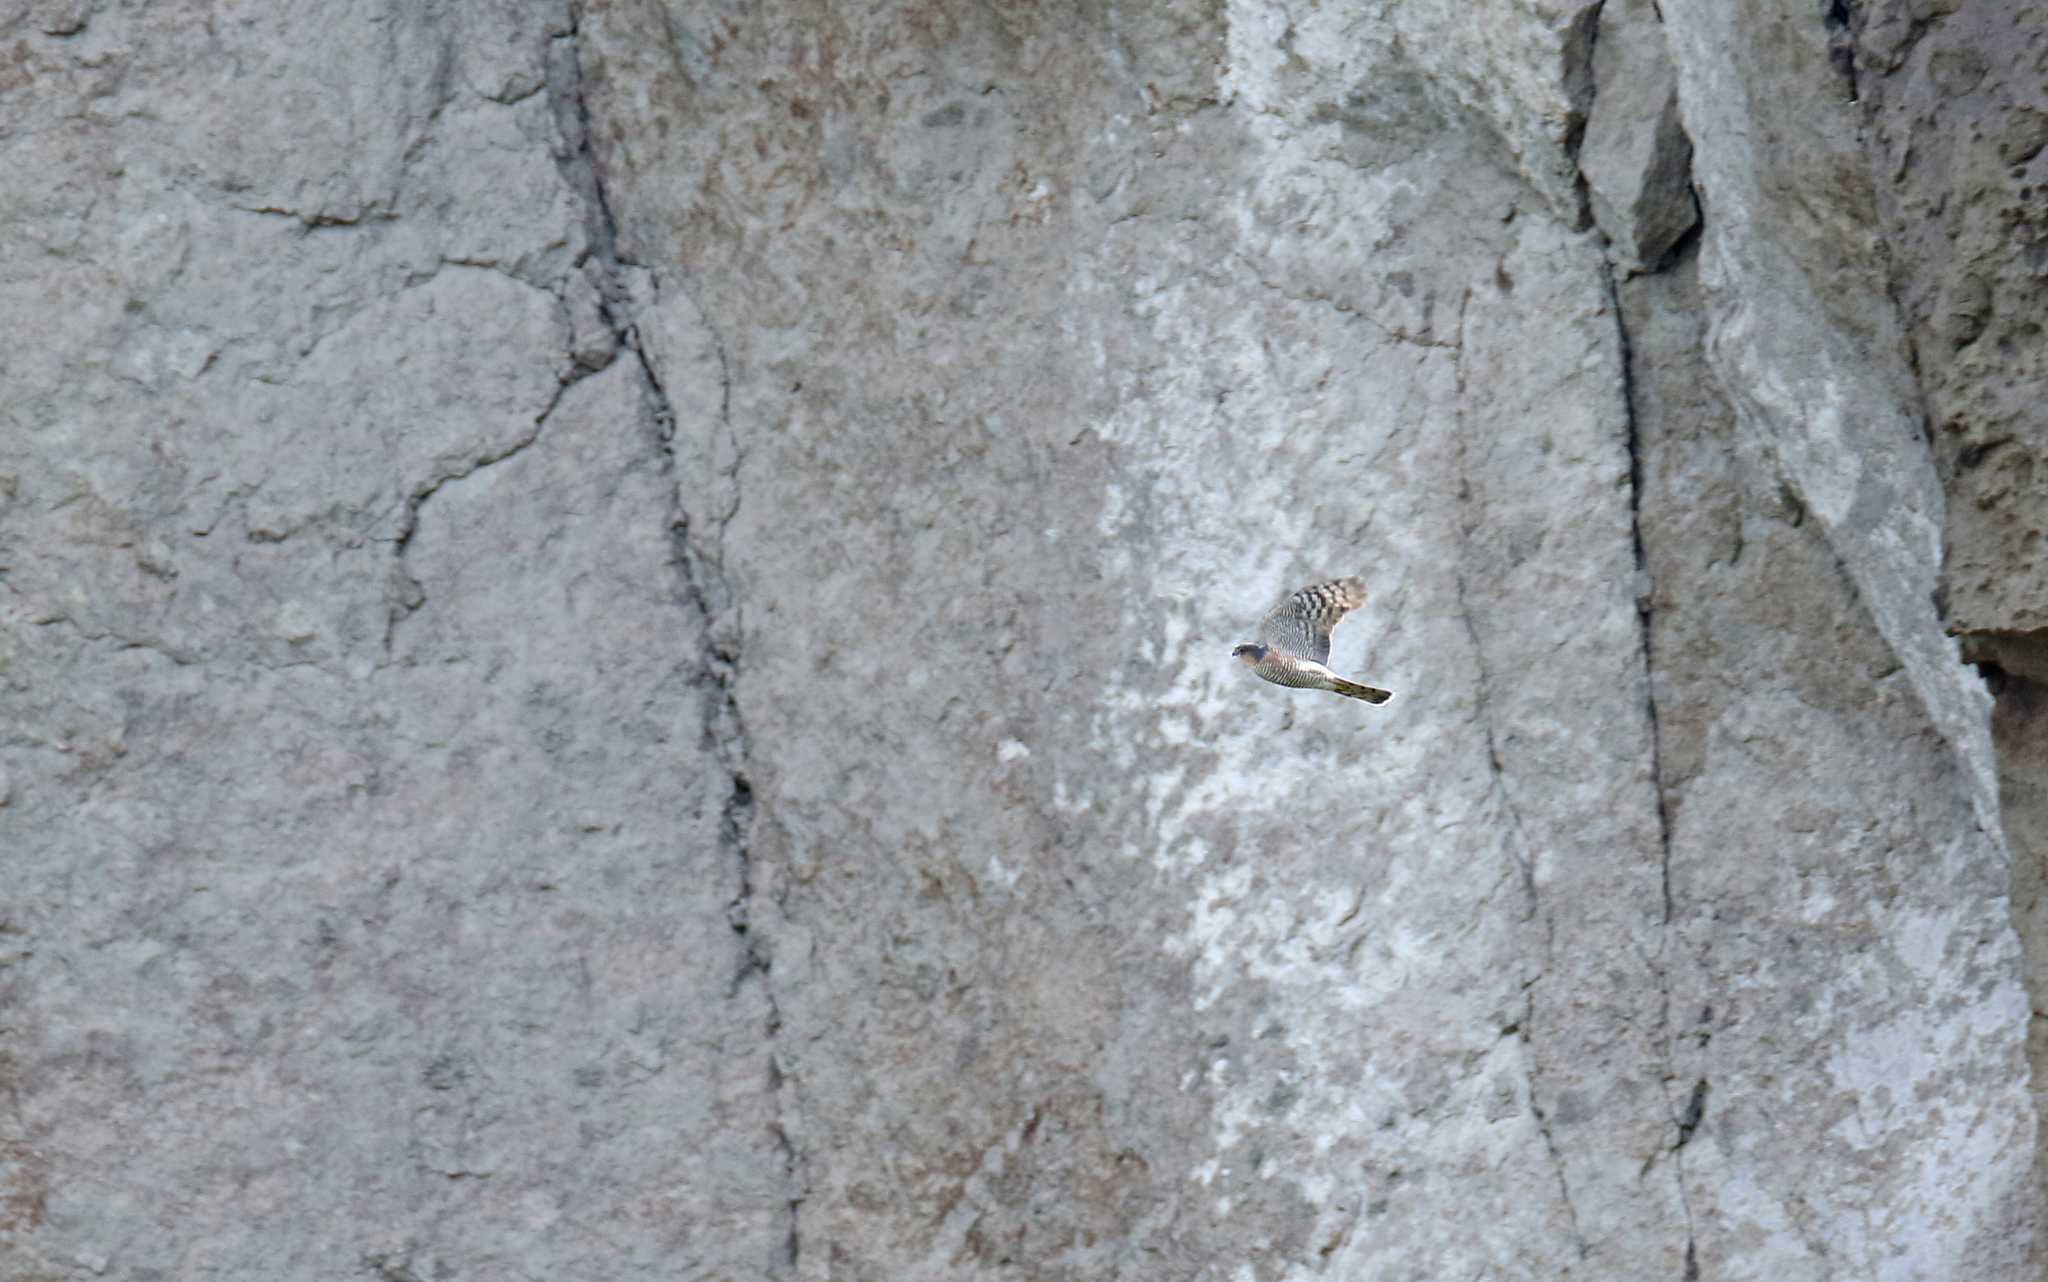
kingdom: Animalia
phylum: Chordata
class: Aves
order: Accipitriformes
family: Accipitridae
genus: Accipiter
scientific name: Accipiter nisus
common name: Eurasian sparrowhawk
